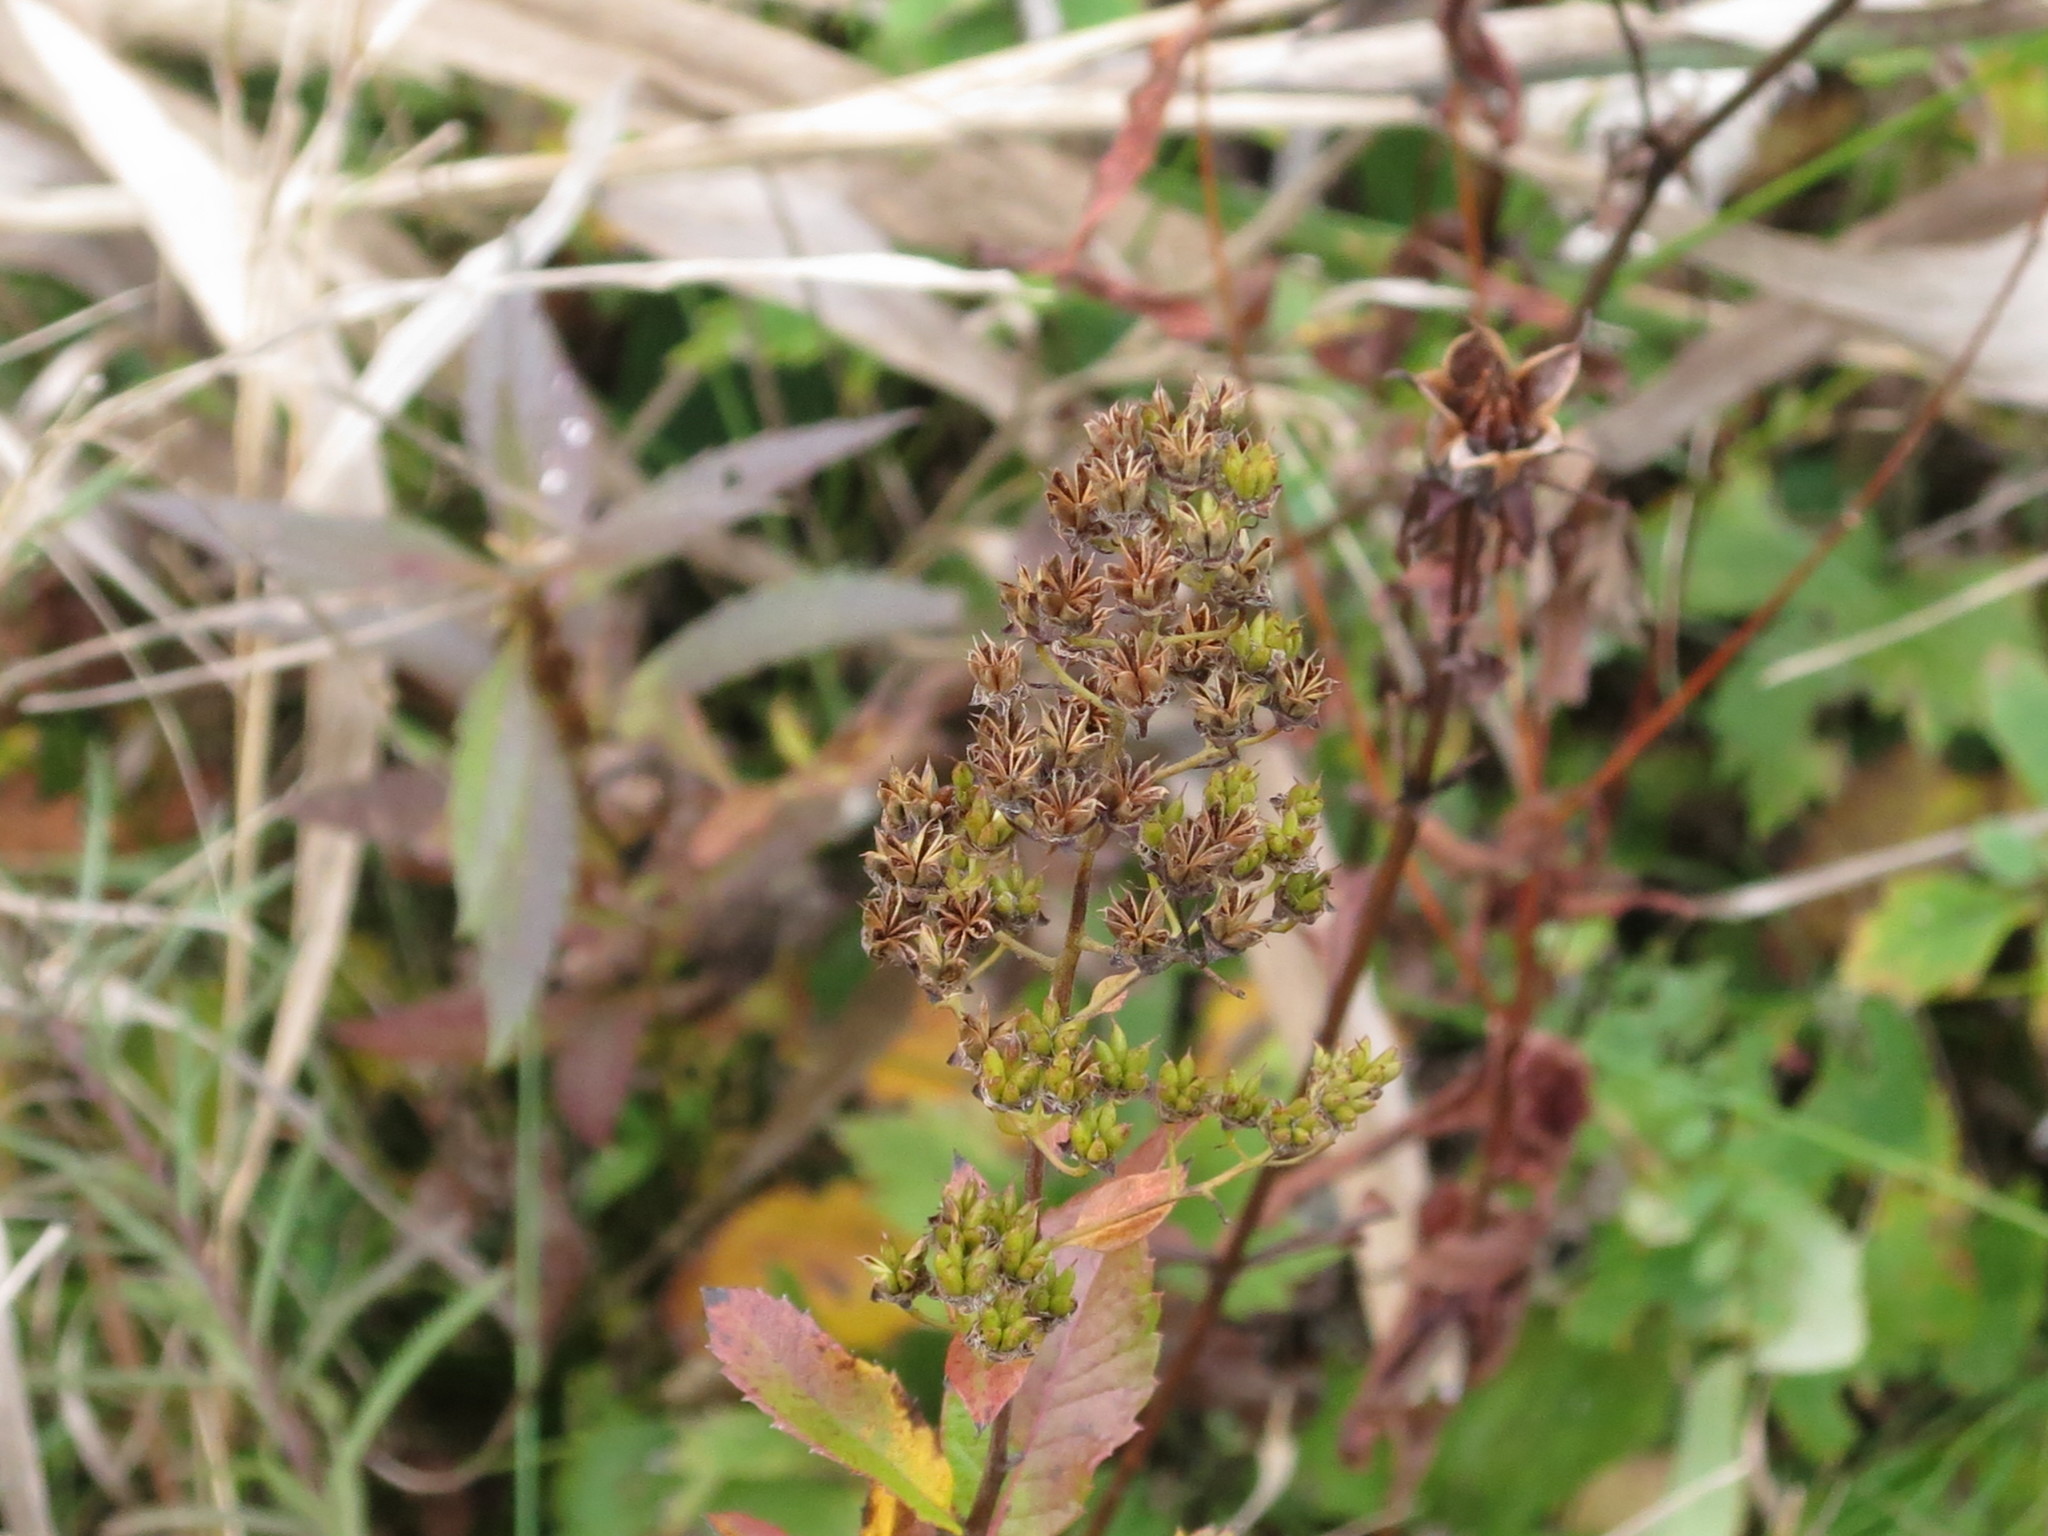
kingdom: Plantae
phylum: Tracheophyta
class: Magnoliopsida
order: Rosales
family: Rosaceae
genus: Spiraea
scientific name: Spiraea salicifolia
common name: Bridewort
